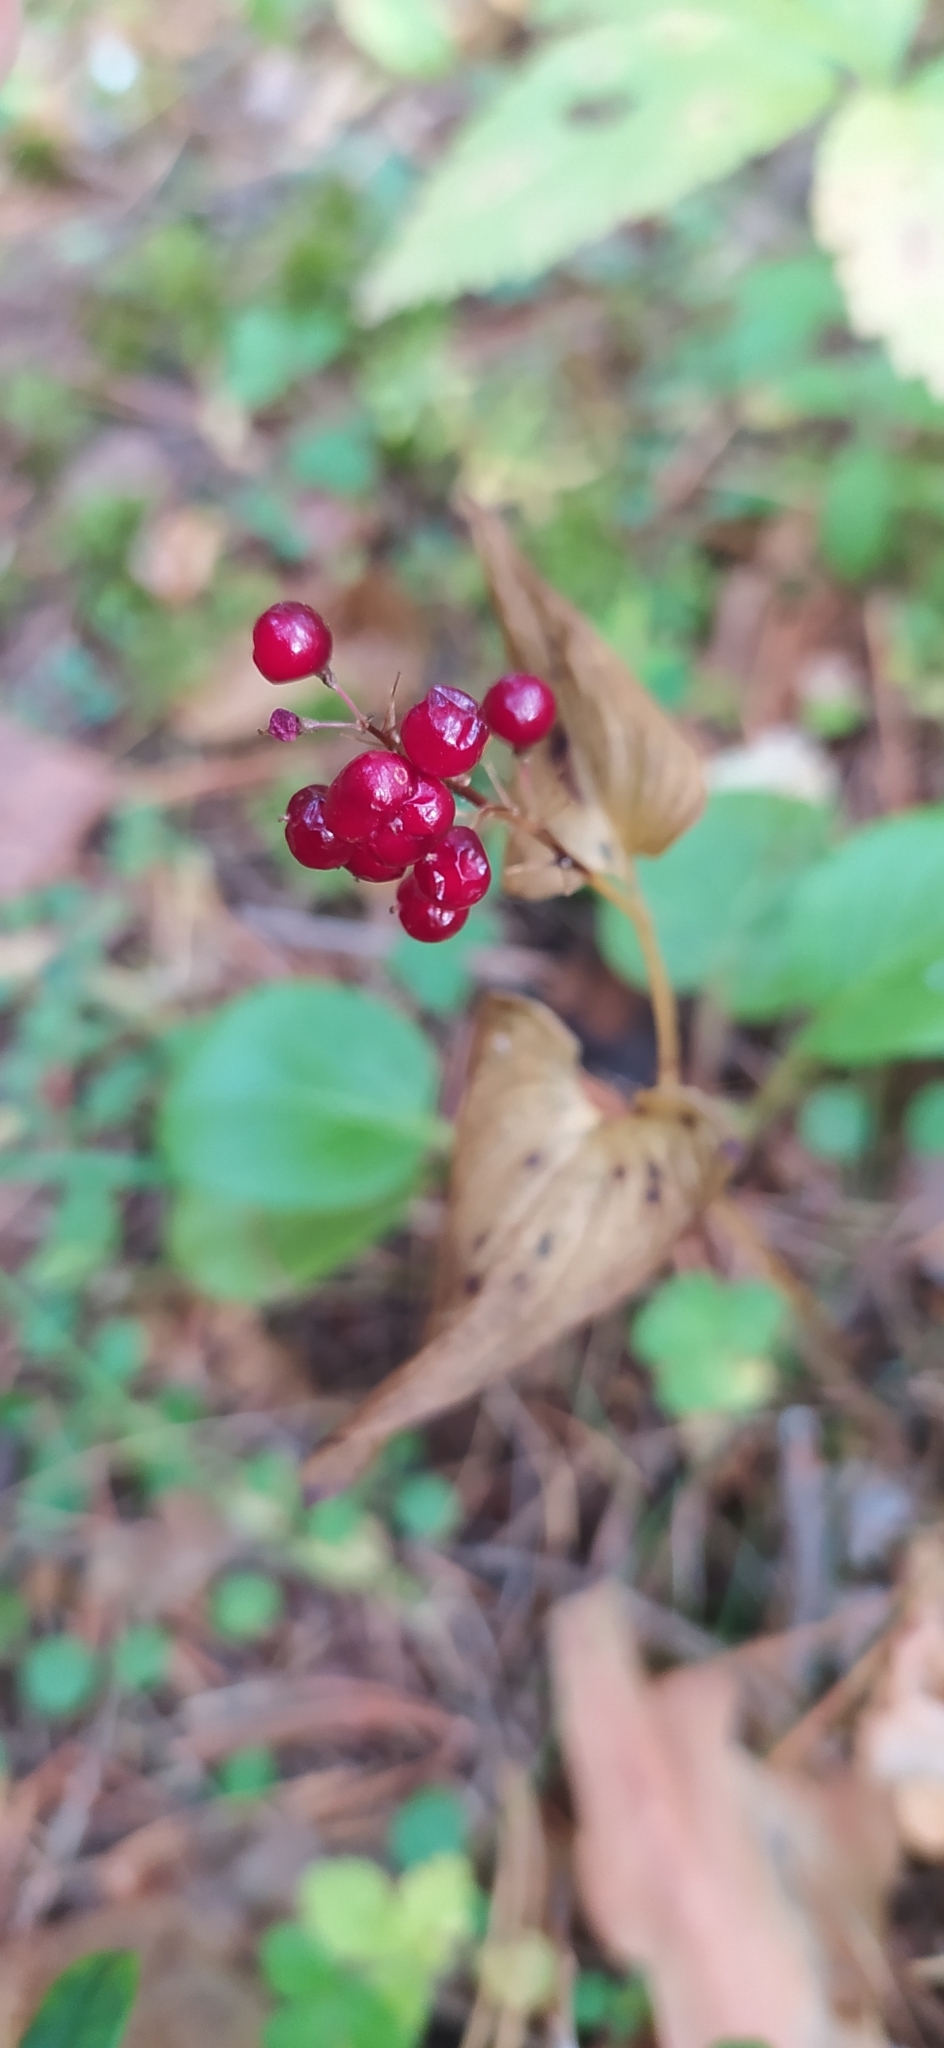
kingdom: Plantae
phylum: Tracheophyta
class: Liliopsida
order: Asparagales
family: Asparagaceae
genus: Maianthemum
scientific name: Maianthemum bifolium
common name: May lily
